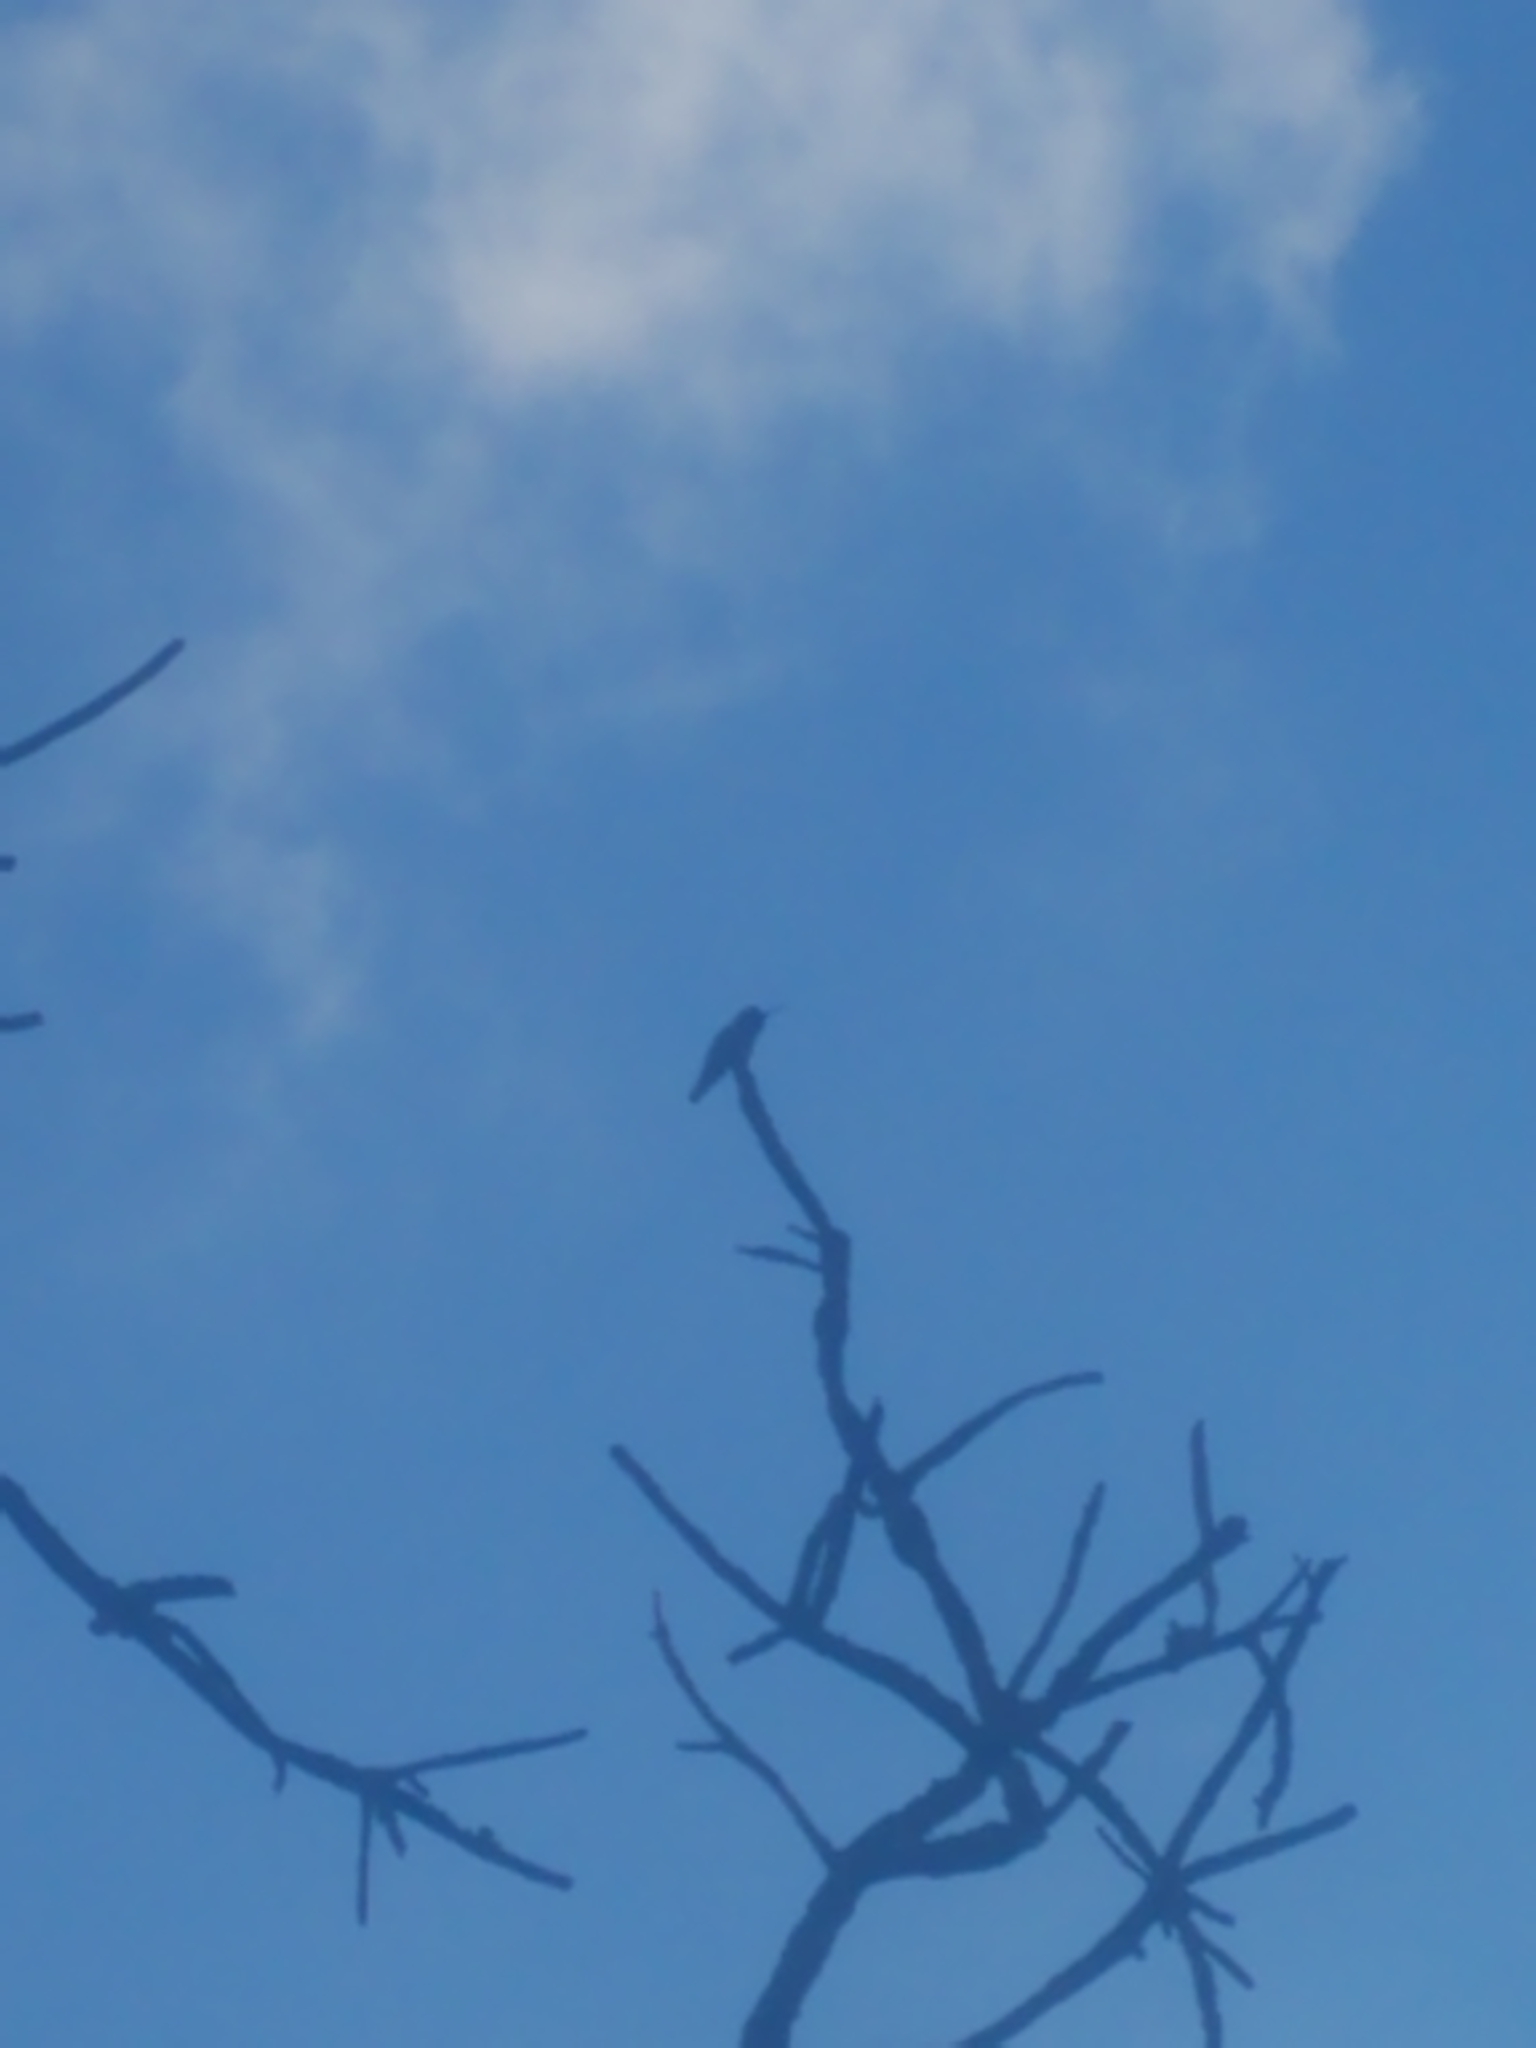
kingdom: Animalia
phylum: Chordata
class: Aves
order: Apodiformes
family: Trochilidae
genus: Calypte
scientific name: Calypte anna
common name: Anna's hummingbird
